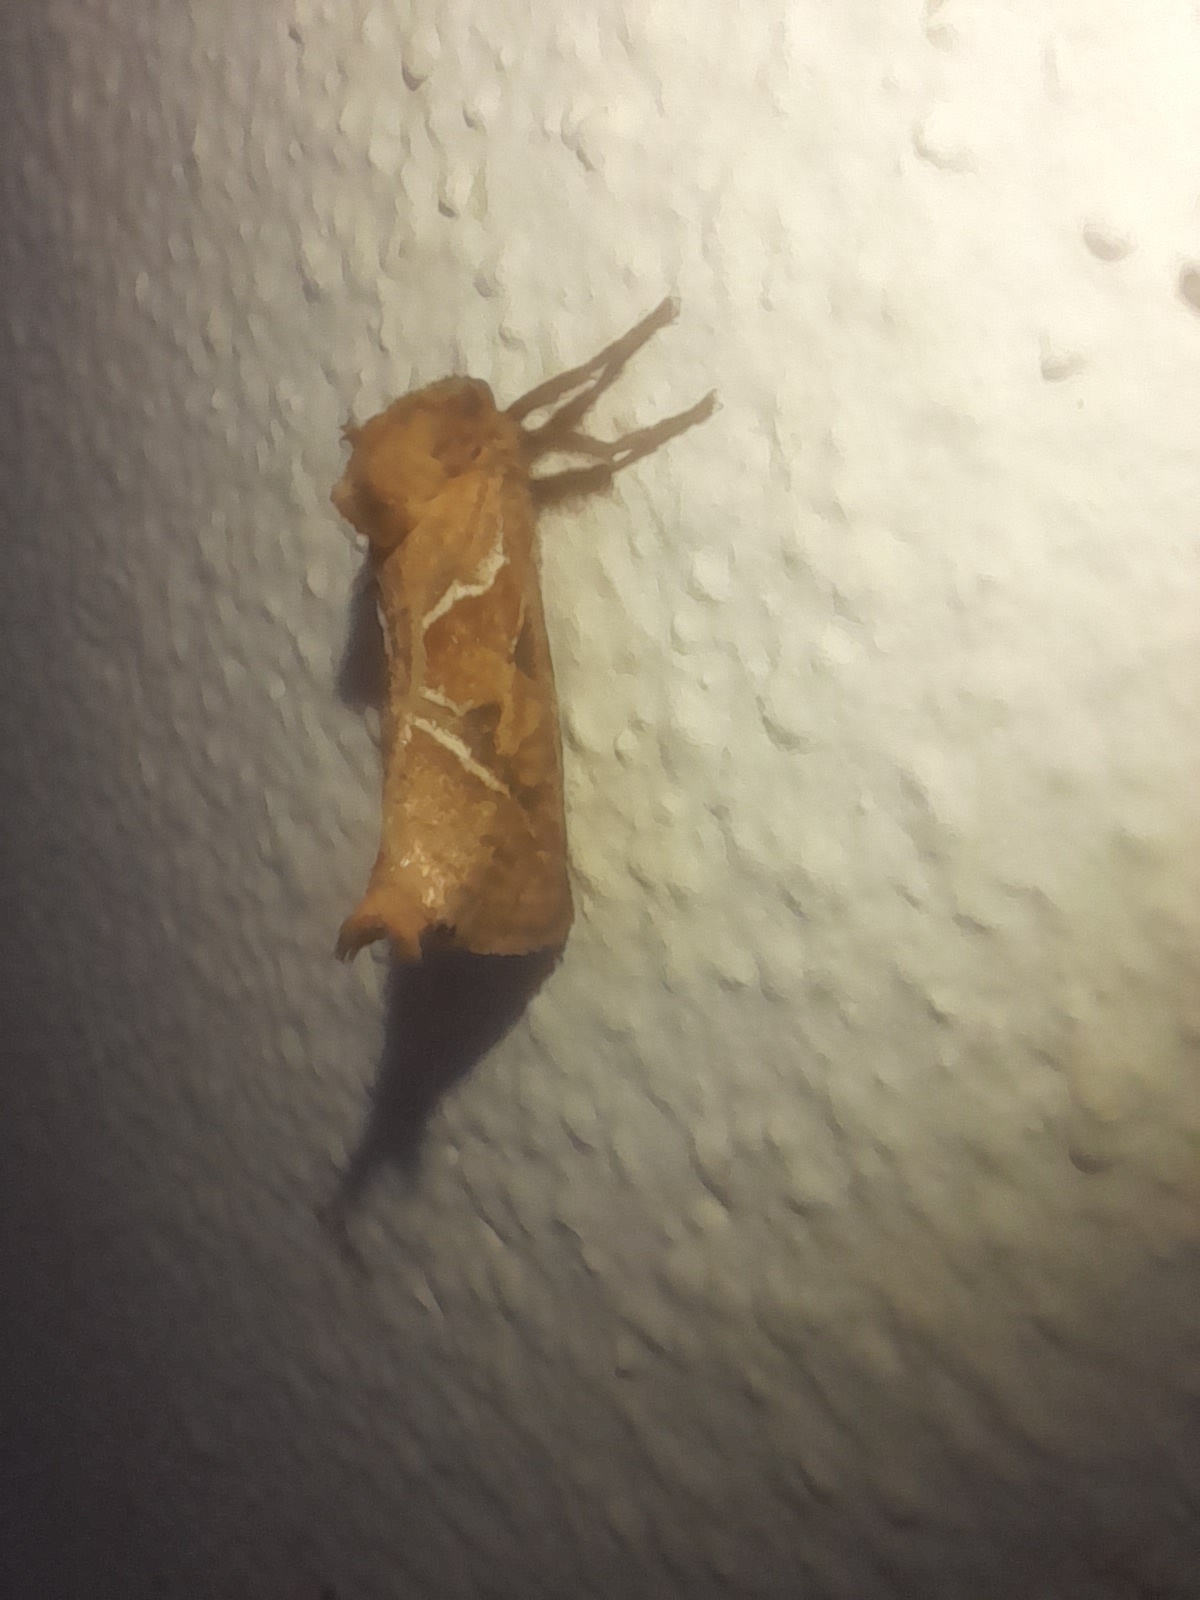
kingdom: Animalia
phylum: Arthropoda
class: Insecta
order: Lepidoptera
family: Hepialidae
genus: Triodia
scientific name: Triodia sylvina
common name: Orange swift
